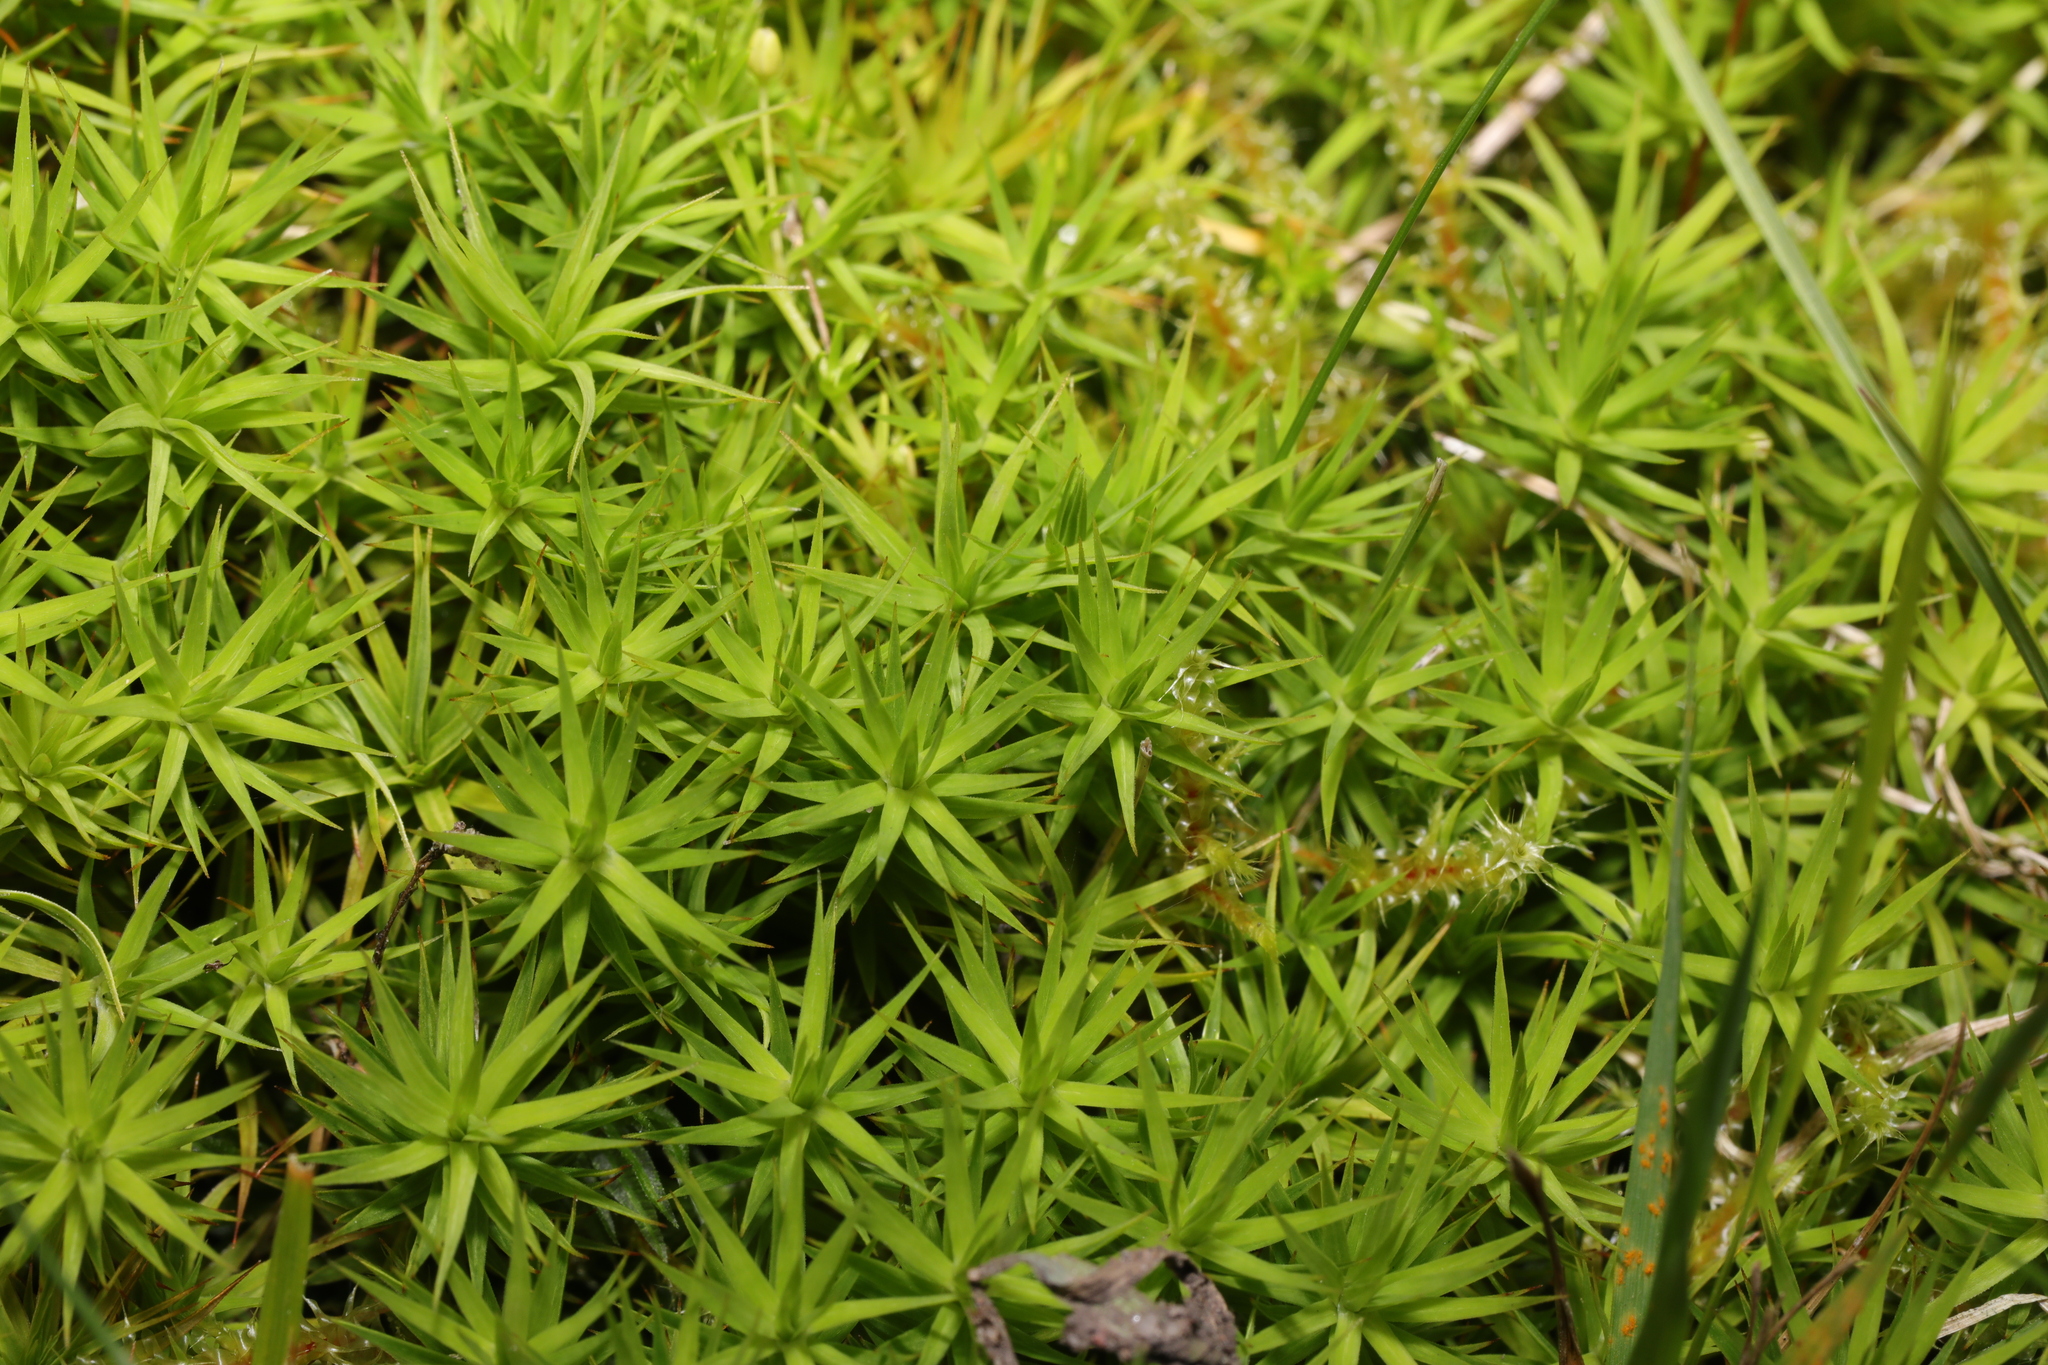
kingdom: Plantae
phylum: Bryophyta
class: Polytrichopsida
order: Polytrichales
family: Polytrichaceae
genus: Polytrichum
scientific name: Polytrichum formosum
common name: Bank haircap moss
